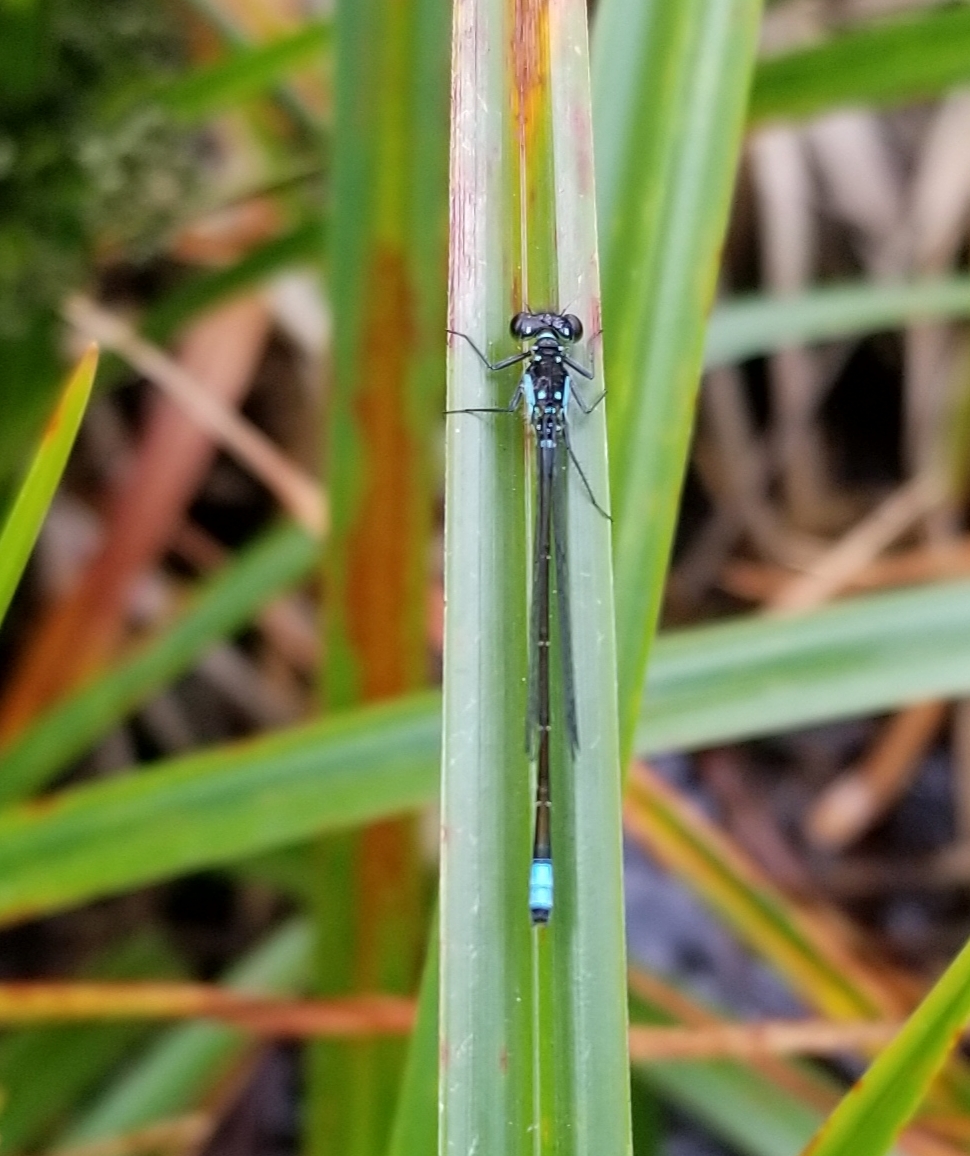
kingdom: Animalia
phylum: Arthropoda
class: Insecta
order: Odonata
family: Coenagrionidae
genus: Ischnura
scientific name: Ischnura cervula
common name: Pacific forktail
